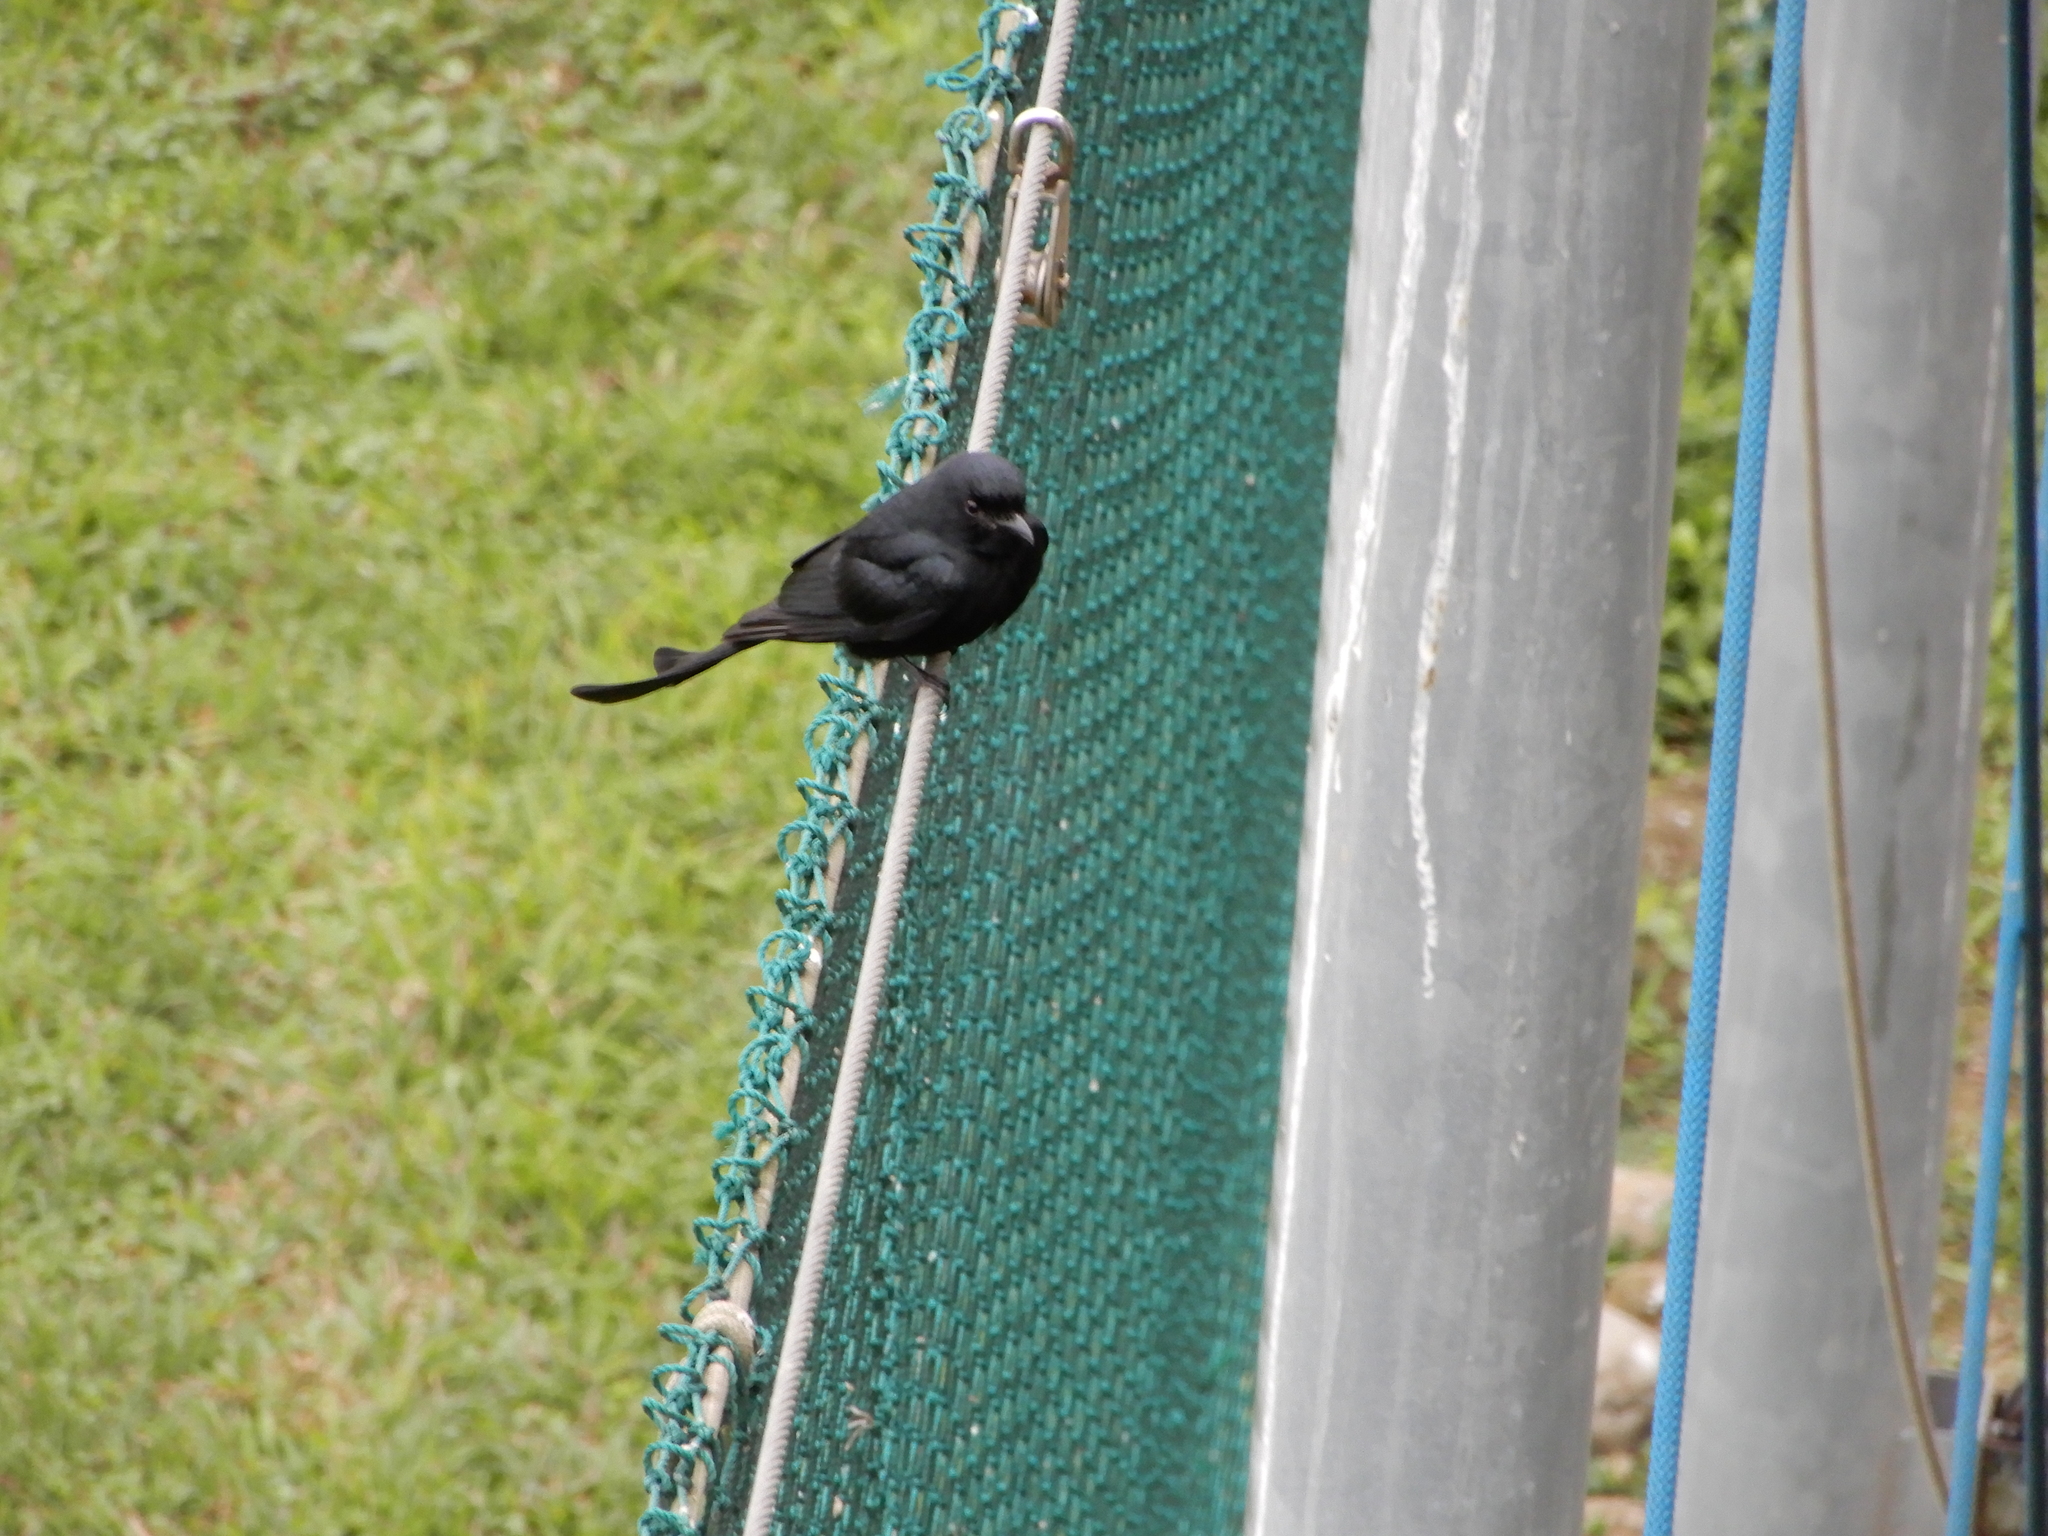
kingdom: Animalia
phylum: Chordata
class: Aves
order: Passeriformes
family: Dicruridae
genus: Dicrurus
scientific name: Dicrurus macrocercus
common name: Black drongo
